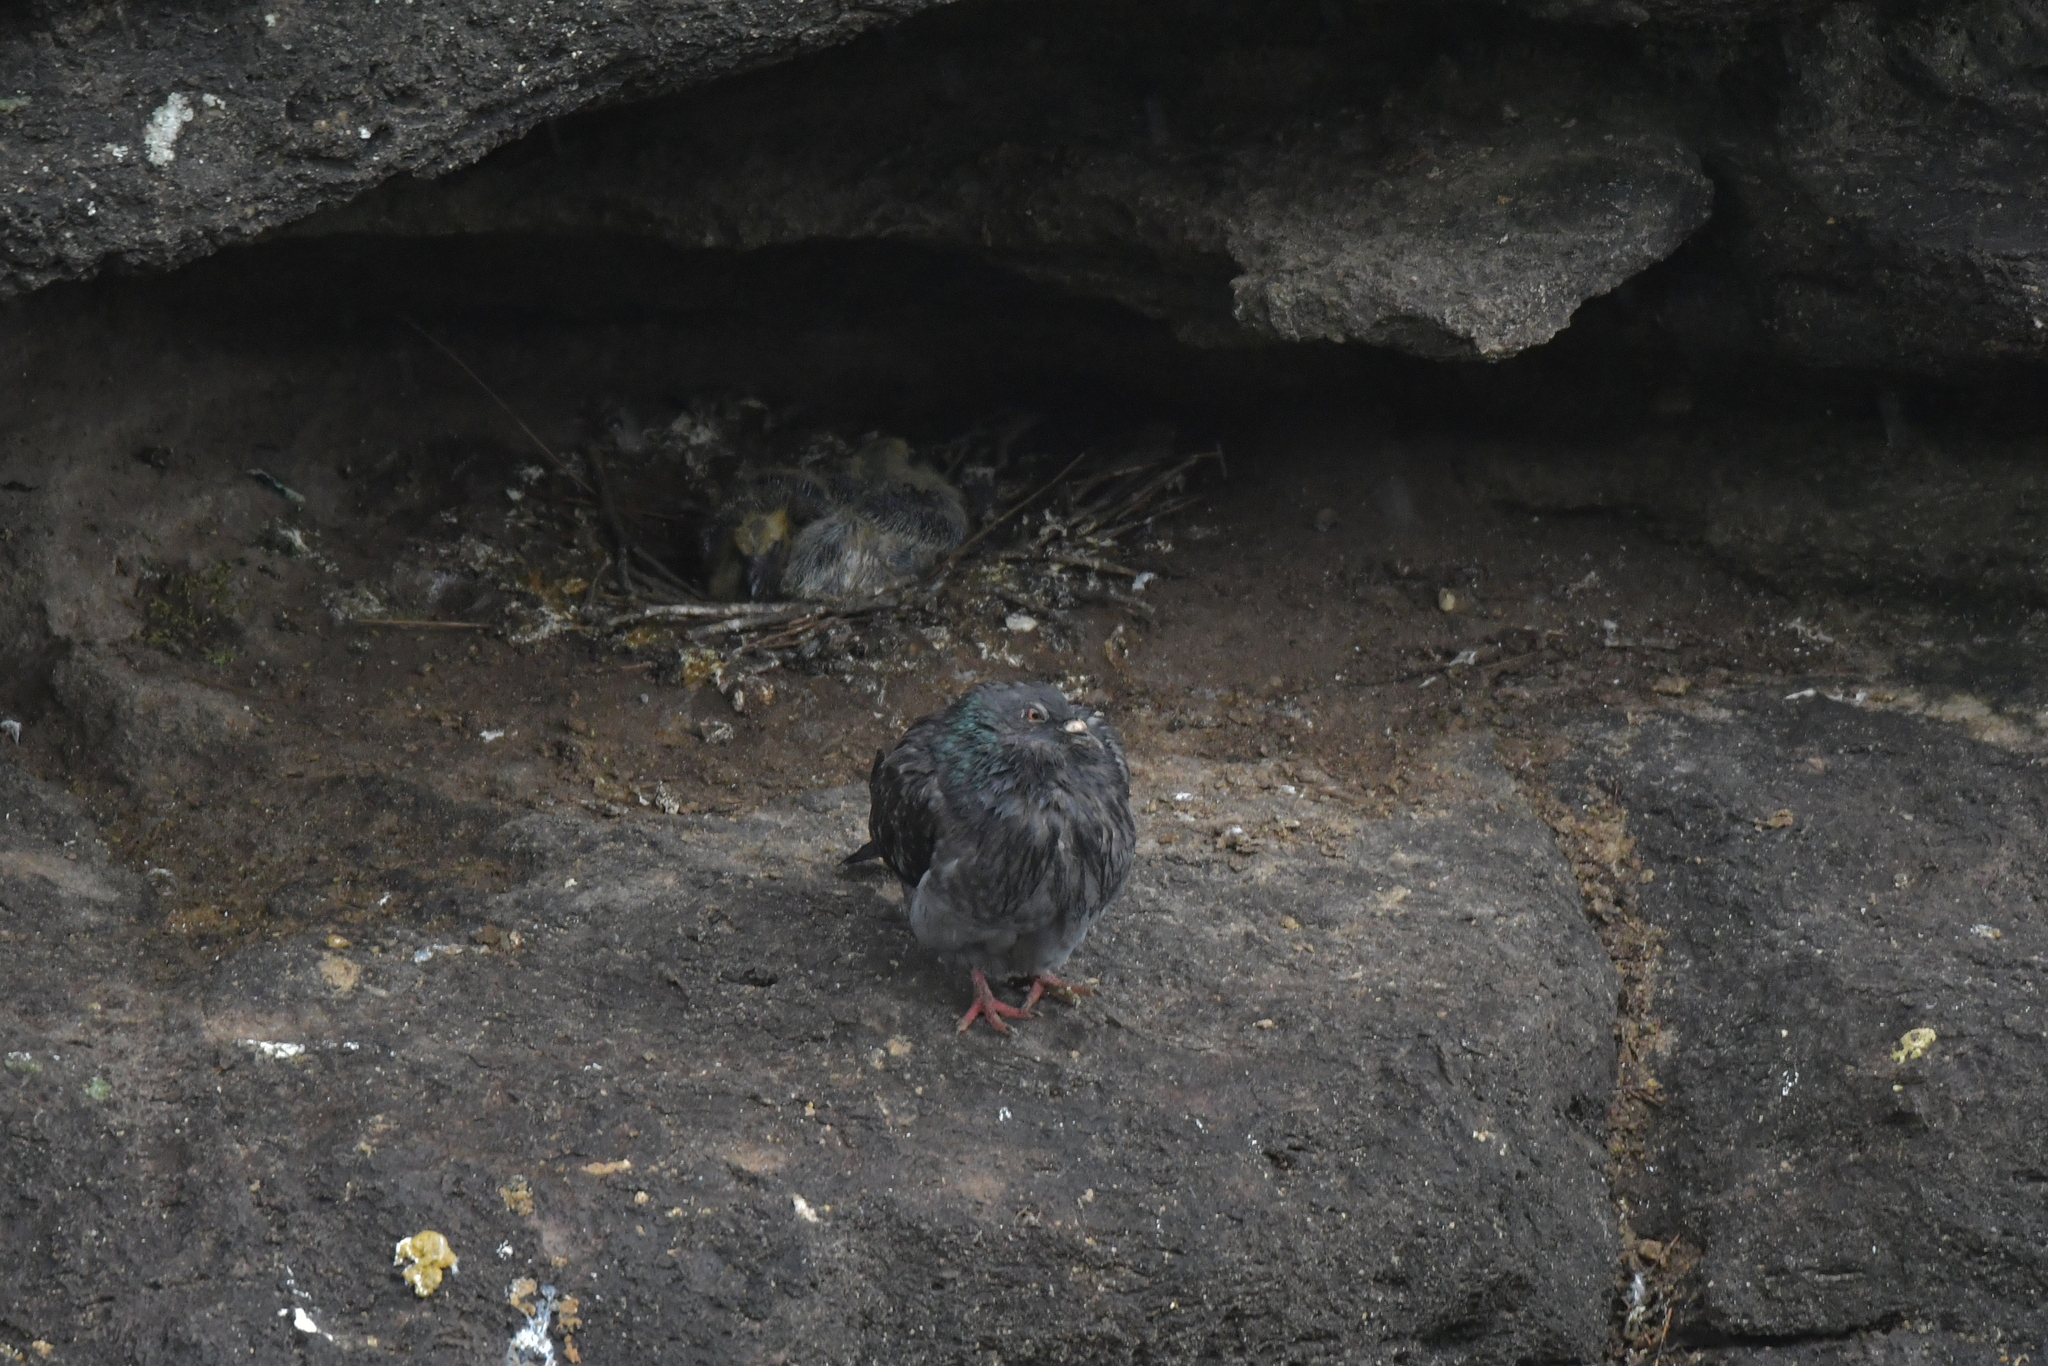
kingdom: Animalia
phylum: Chordata
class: Aves
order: Columbiformes
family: Columbidae
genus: Columba
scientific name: Columba livia
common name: Rock pigeon
